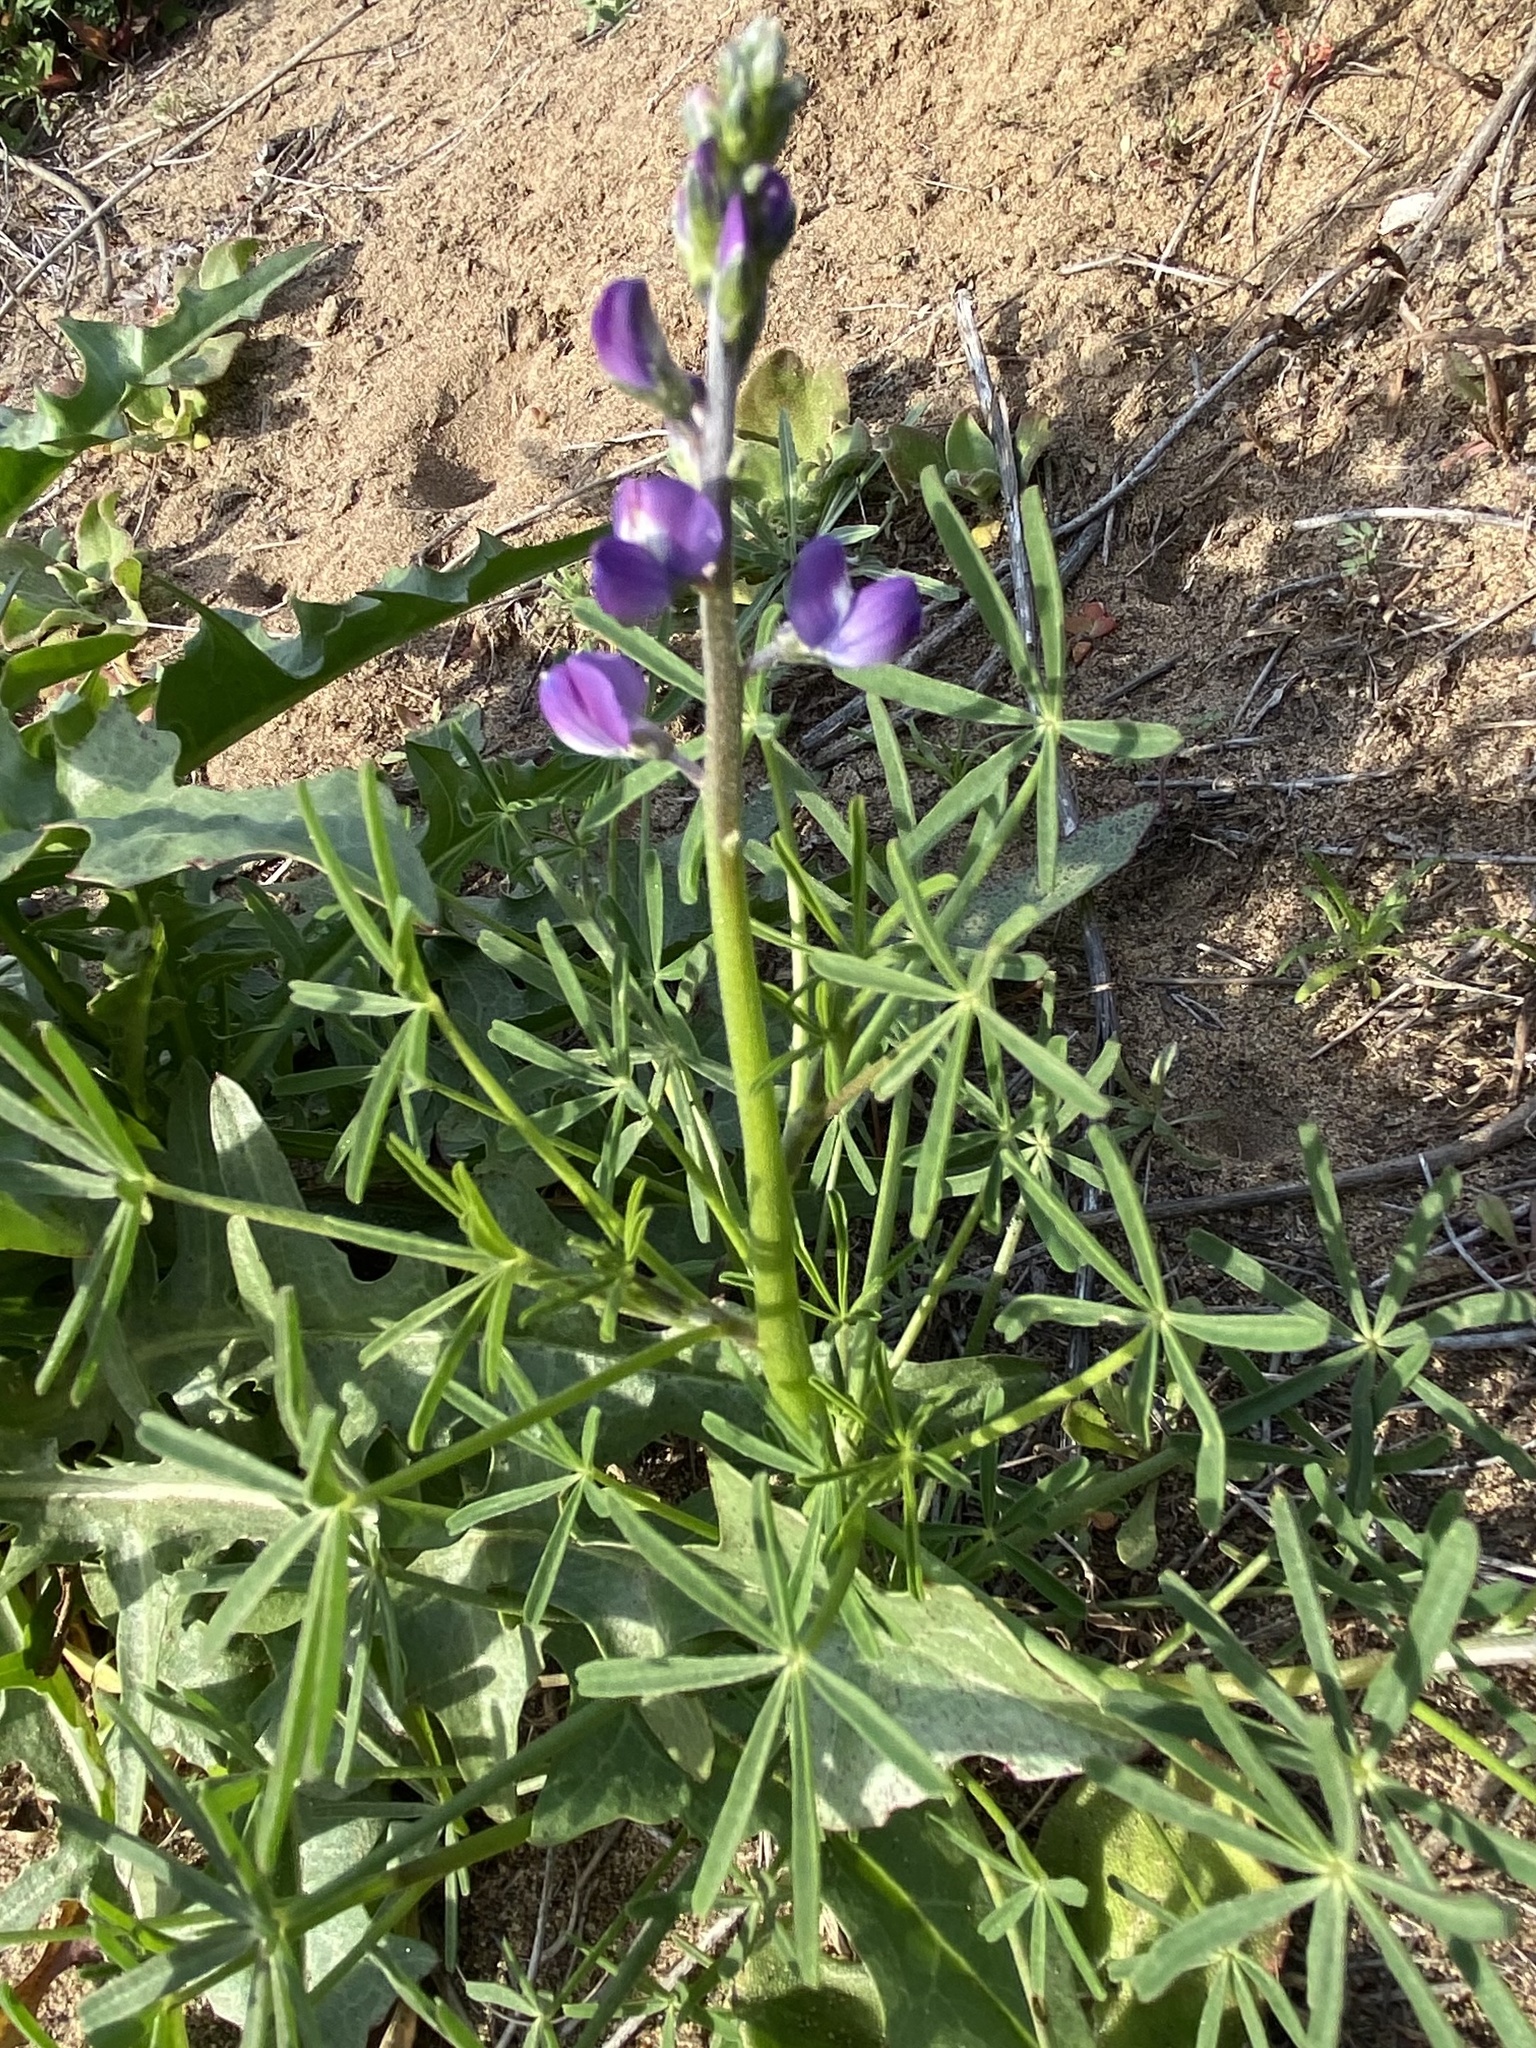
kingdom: Plantae
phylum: Tracheophyta
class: Magnoliopsida
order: Fabales
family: Fabaceae
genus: Lupinus
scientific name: Lupinus truncatus
